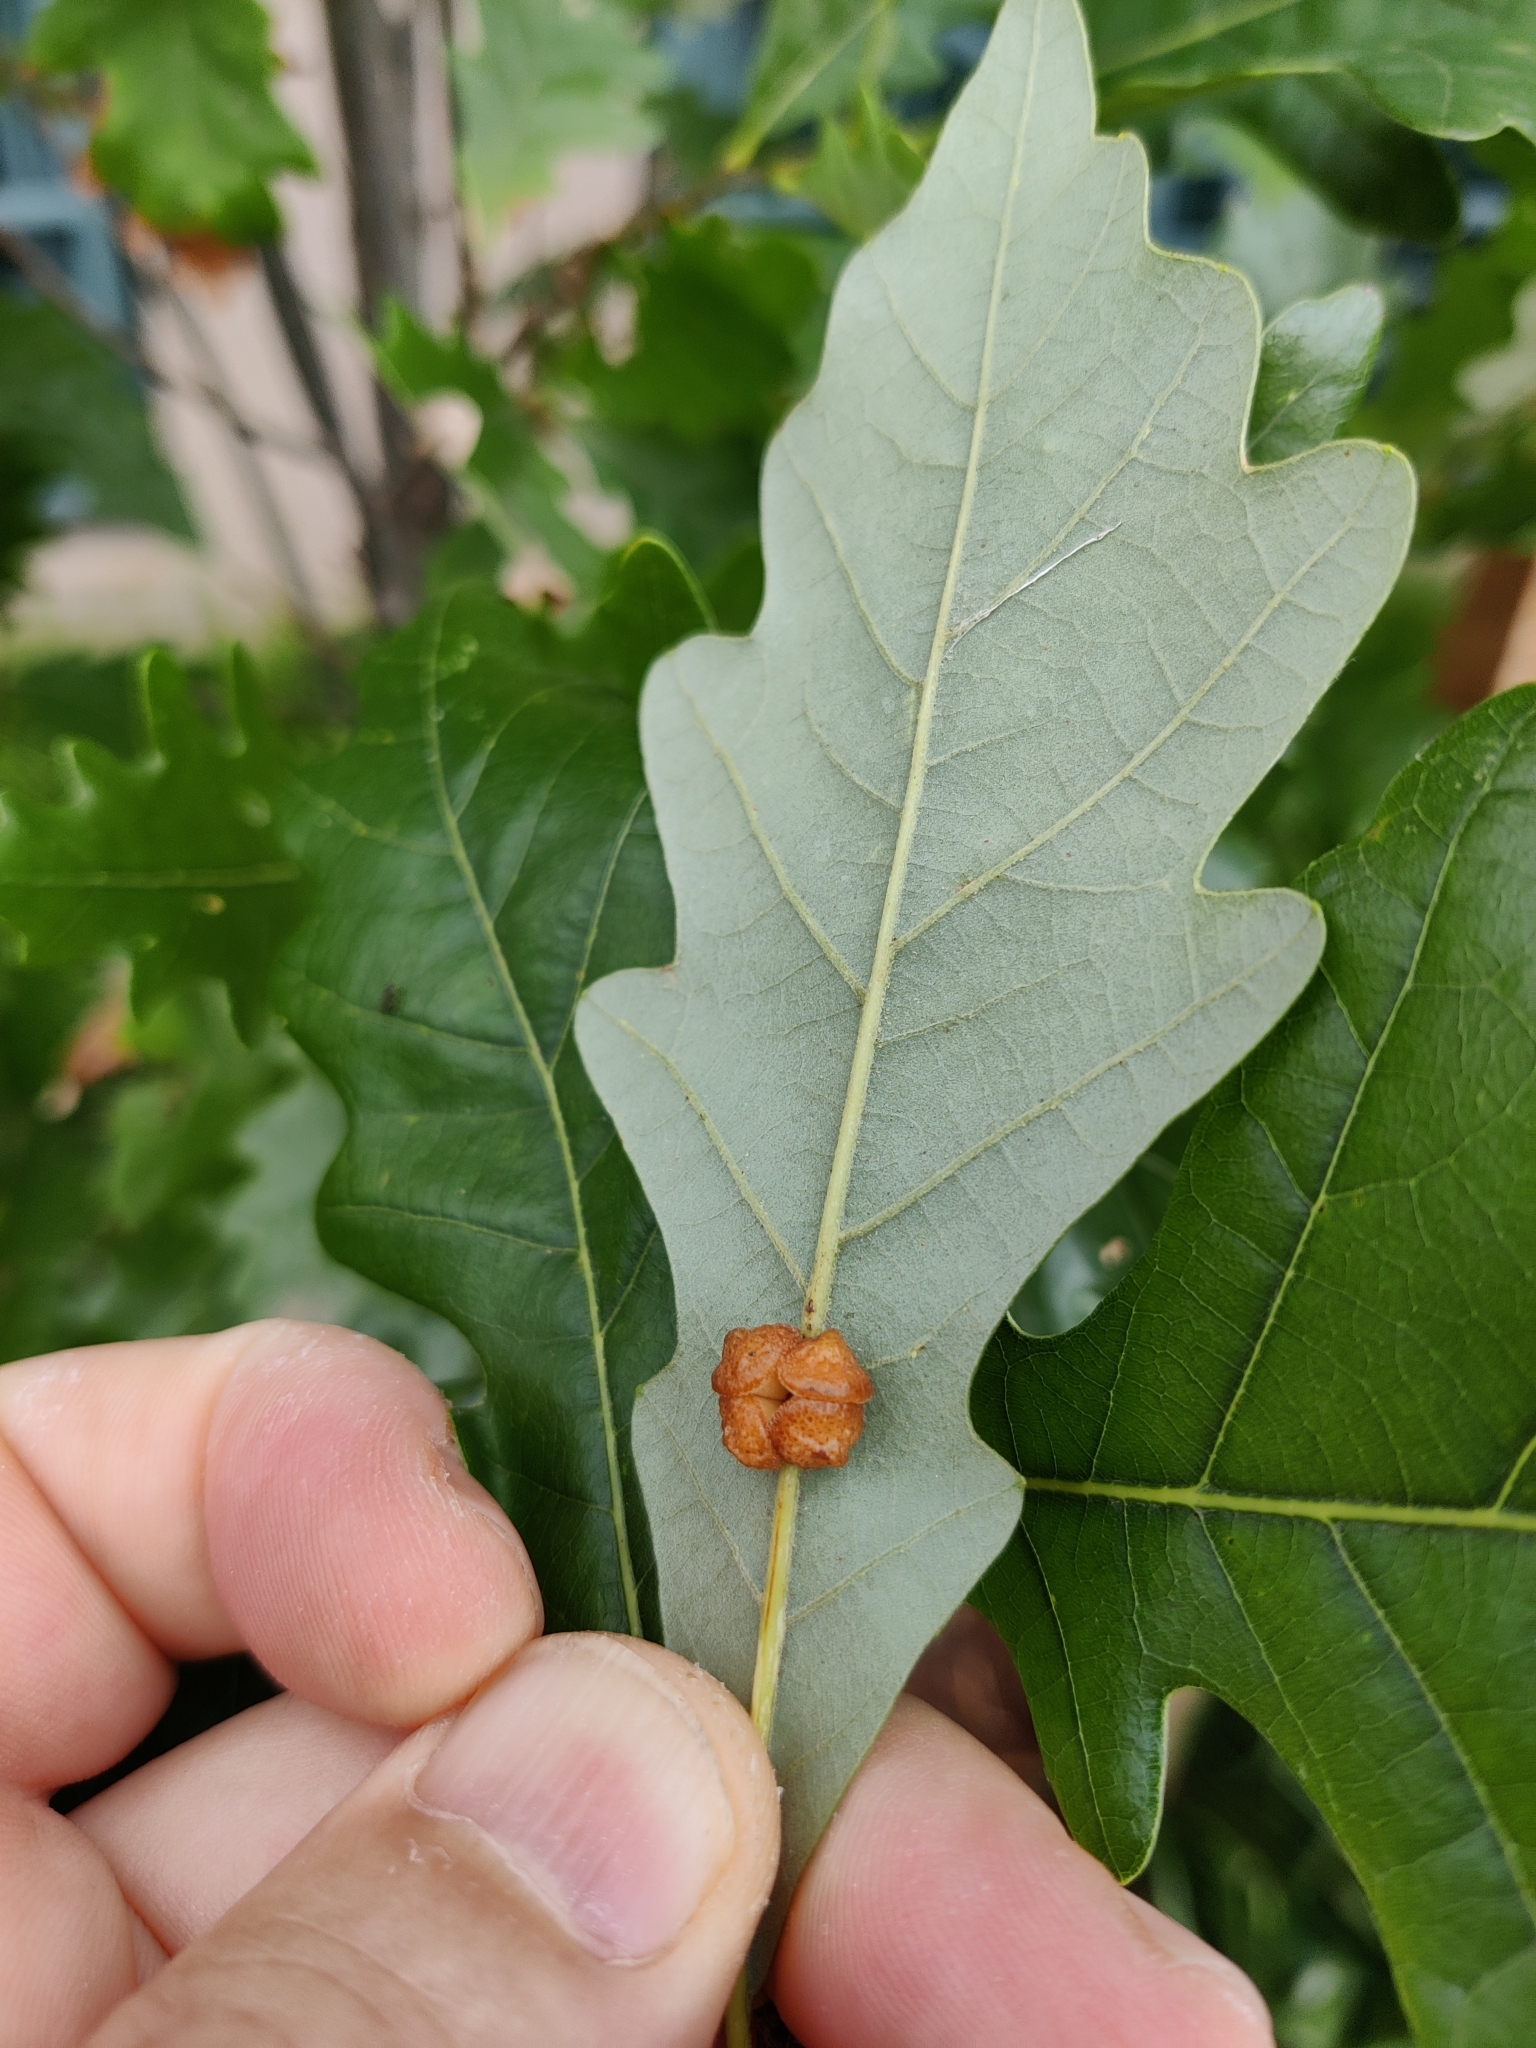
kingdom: Animalia
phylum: Arthropoda
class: Insecta
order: Hymenoptera
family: Cynipidae
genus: Andricus
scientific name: Andricus
